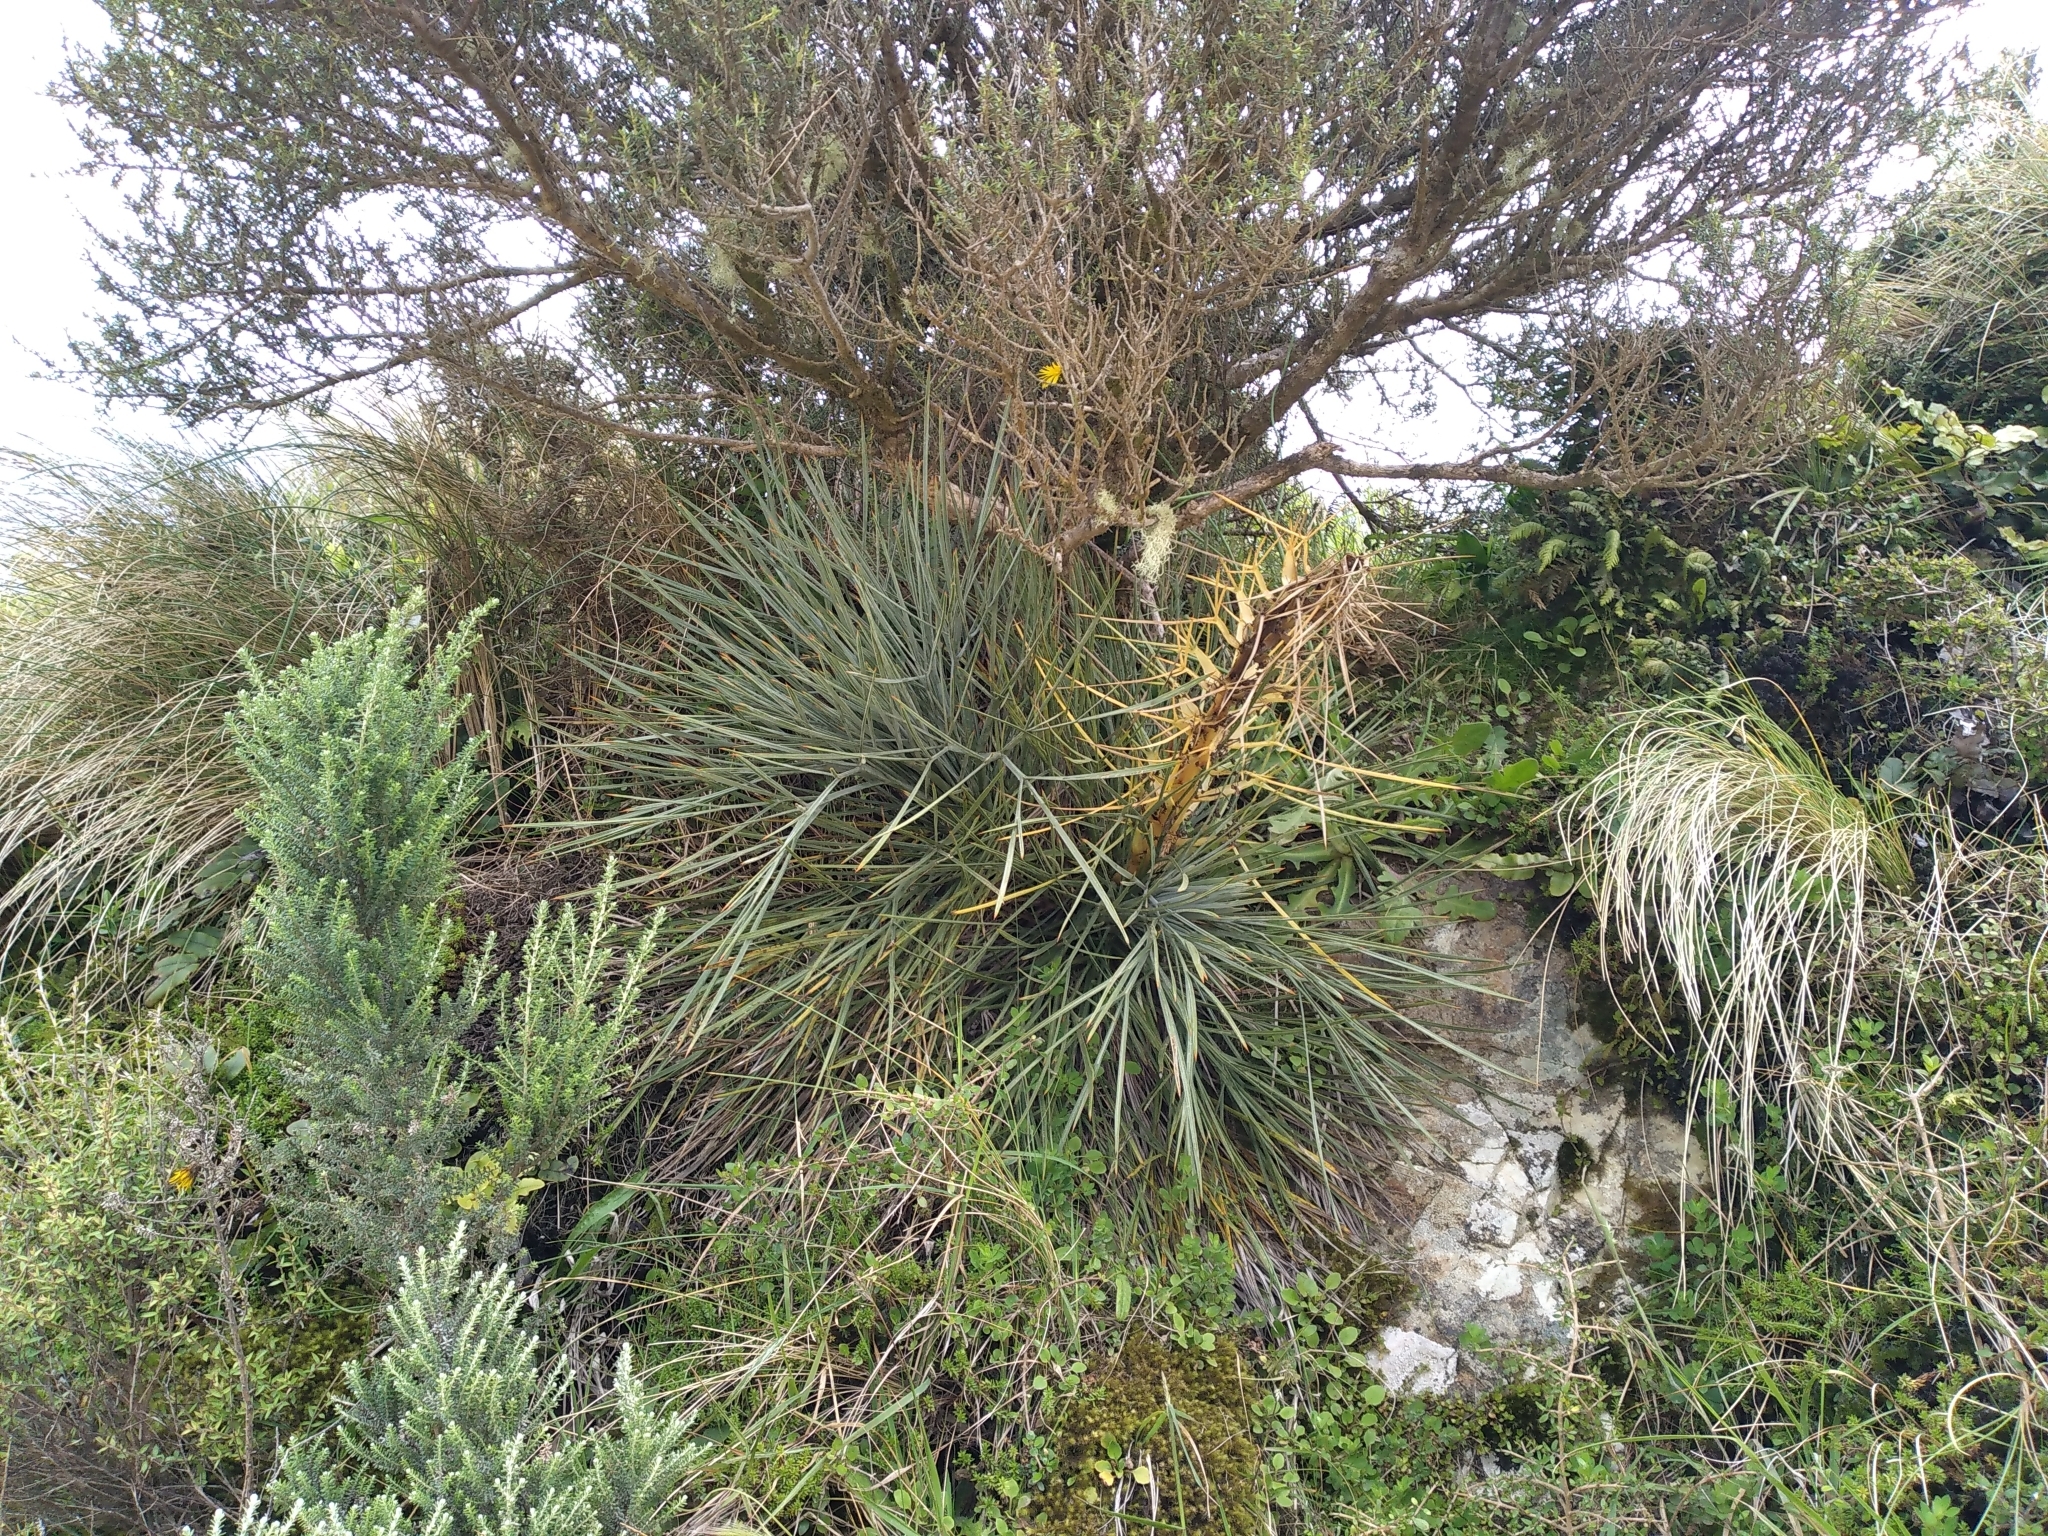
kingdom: Plantae
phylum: Tracheophyta
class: Magnoliopsida
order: Apiales
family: Apiaceae
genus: Aciphylla
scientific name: Aciphylla squarrosa
